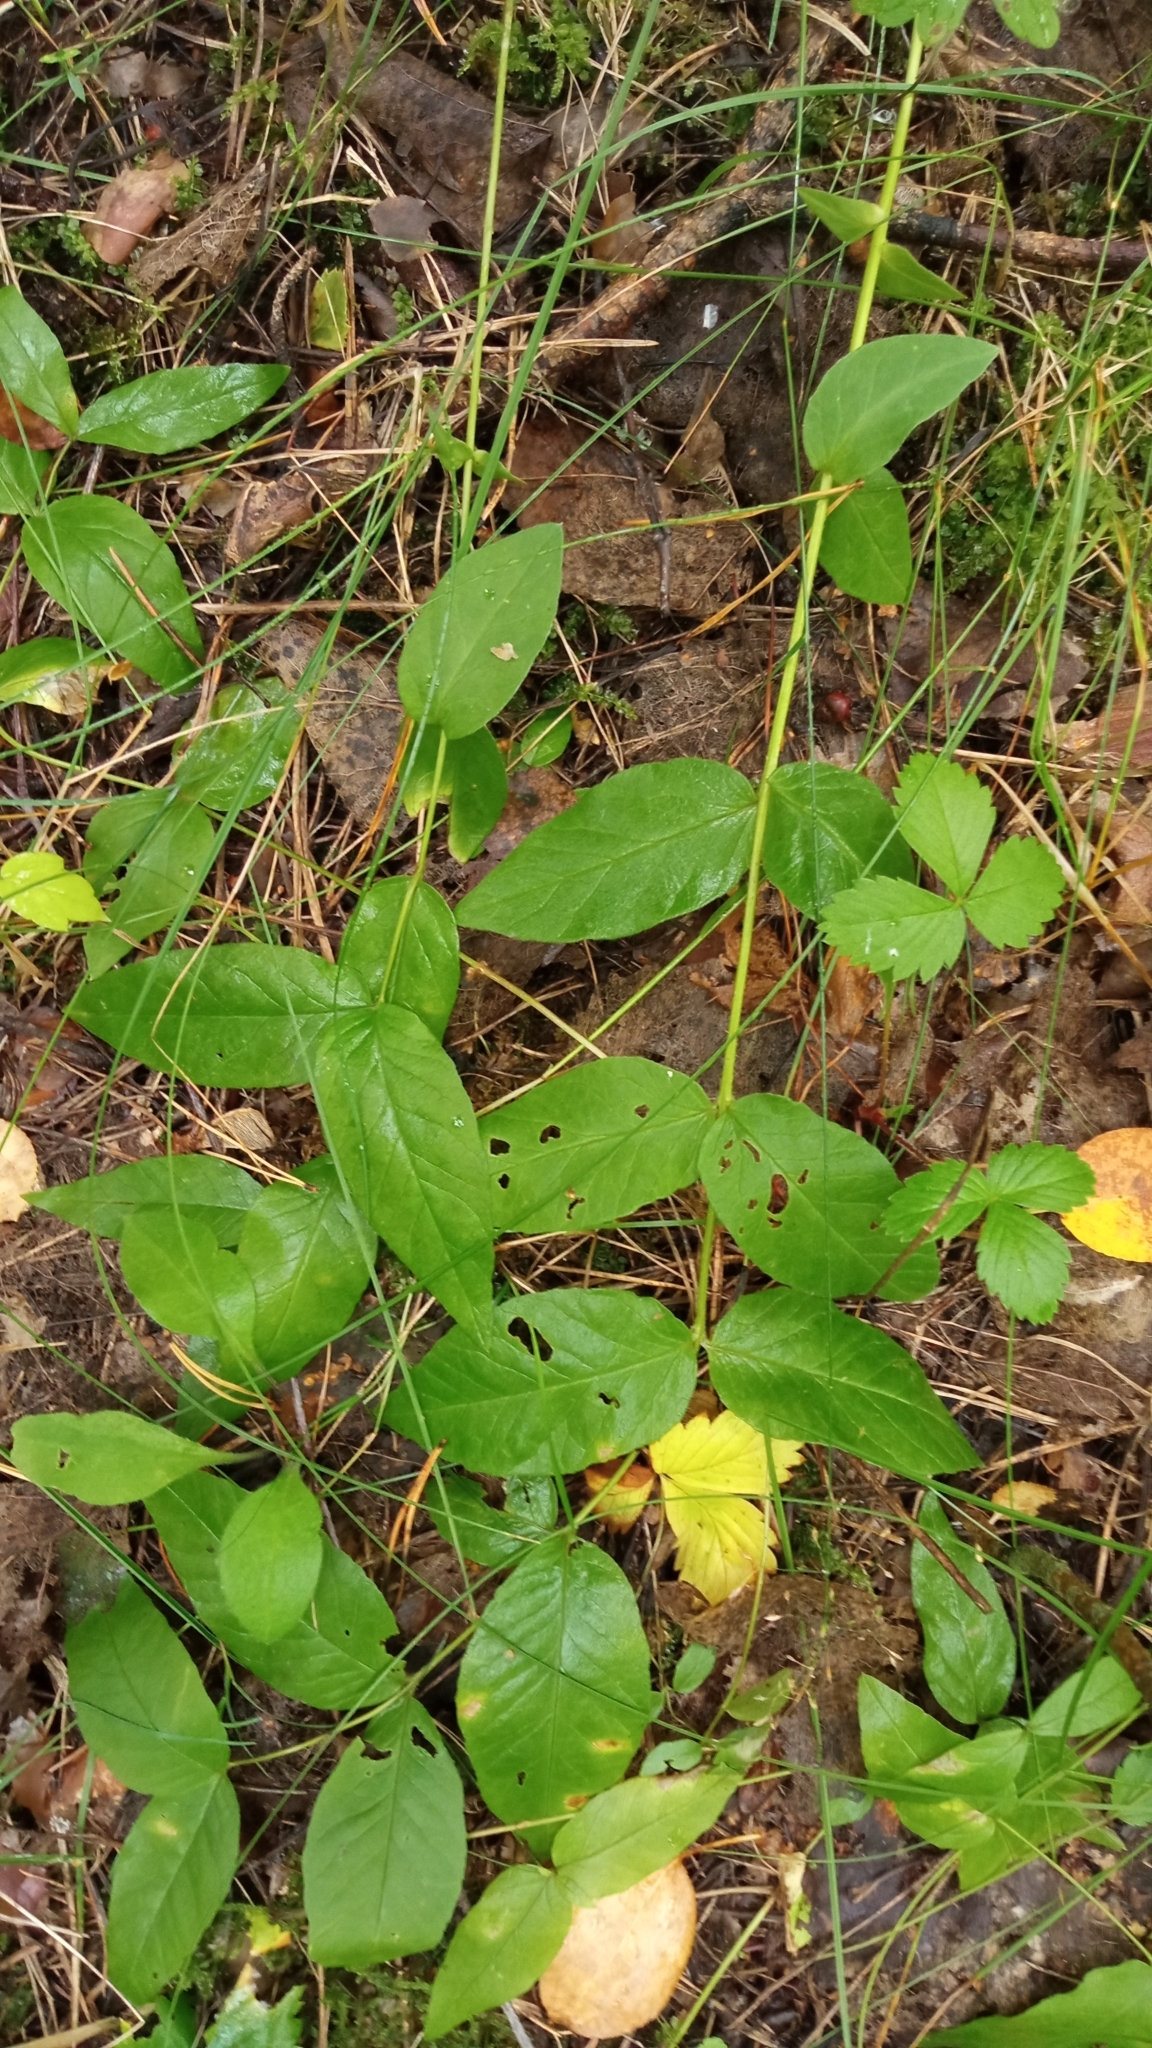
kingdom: Plantae
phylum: Tracheophyta
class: Magnoliopsida
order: Ericales
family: Primulaceae
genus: Lysimachia
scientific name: Lysimachia vulgaris
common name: Yellow loosestrife
